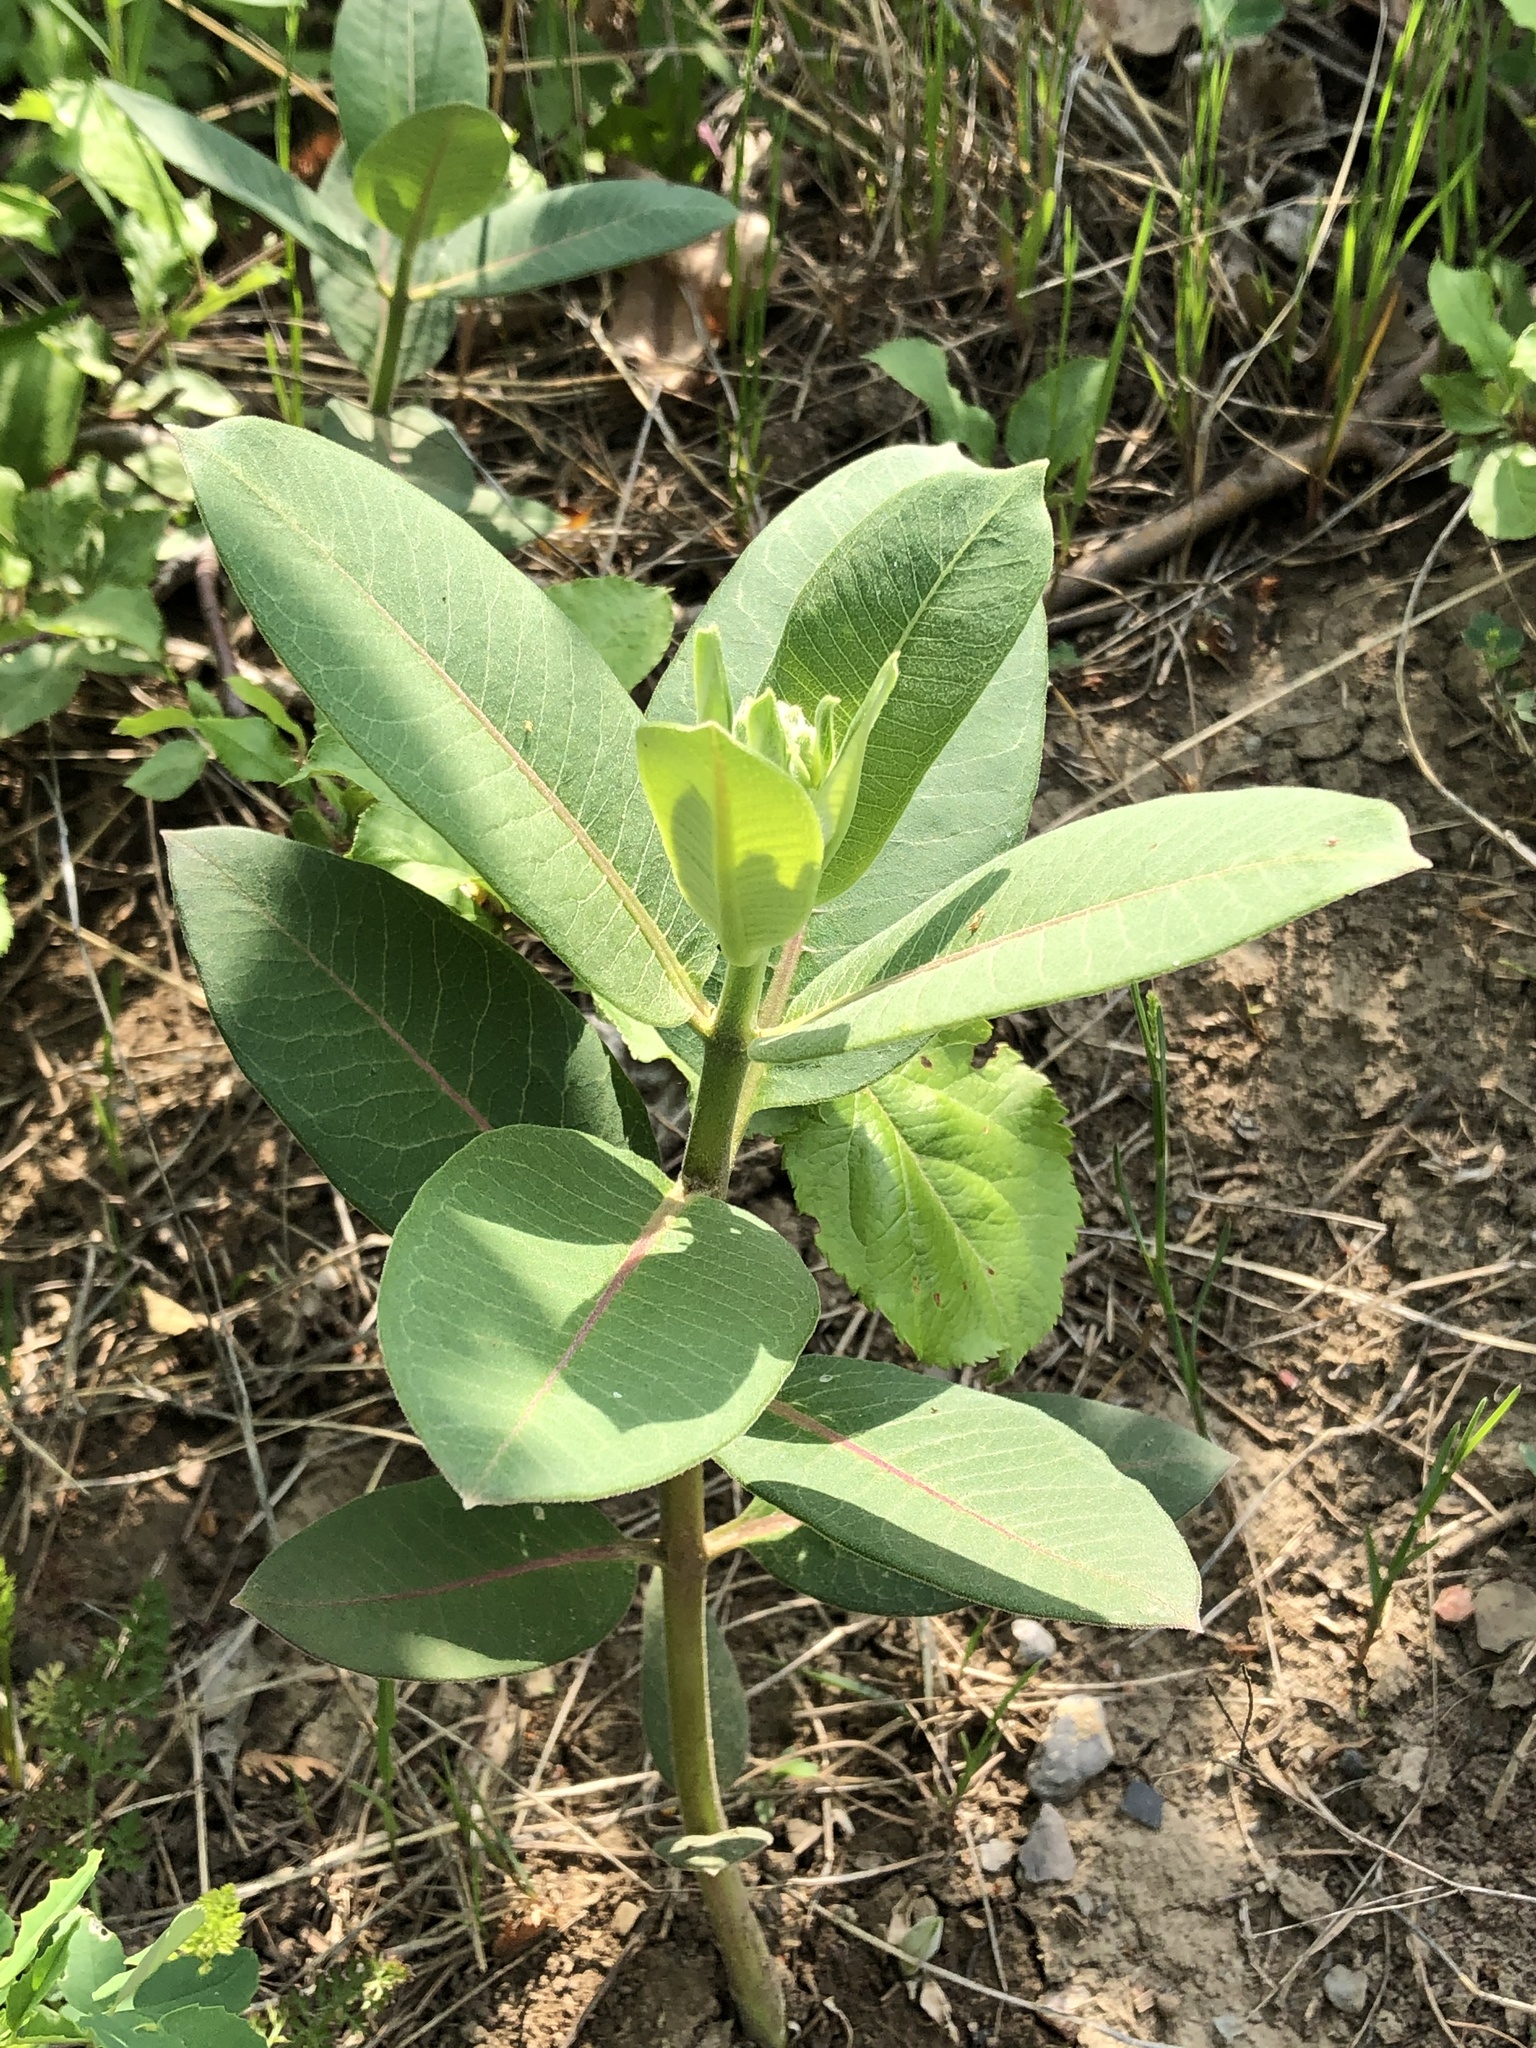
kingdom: Plantae
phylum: Tracheophyta
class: Magnoliopsida
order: Gentianales
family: Apocynaceae
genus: Asclepias
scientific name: Asclepias syriaca
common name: Common milkweed
